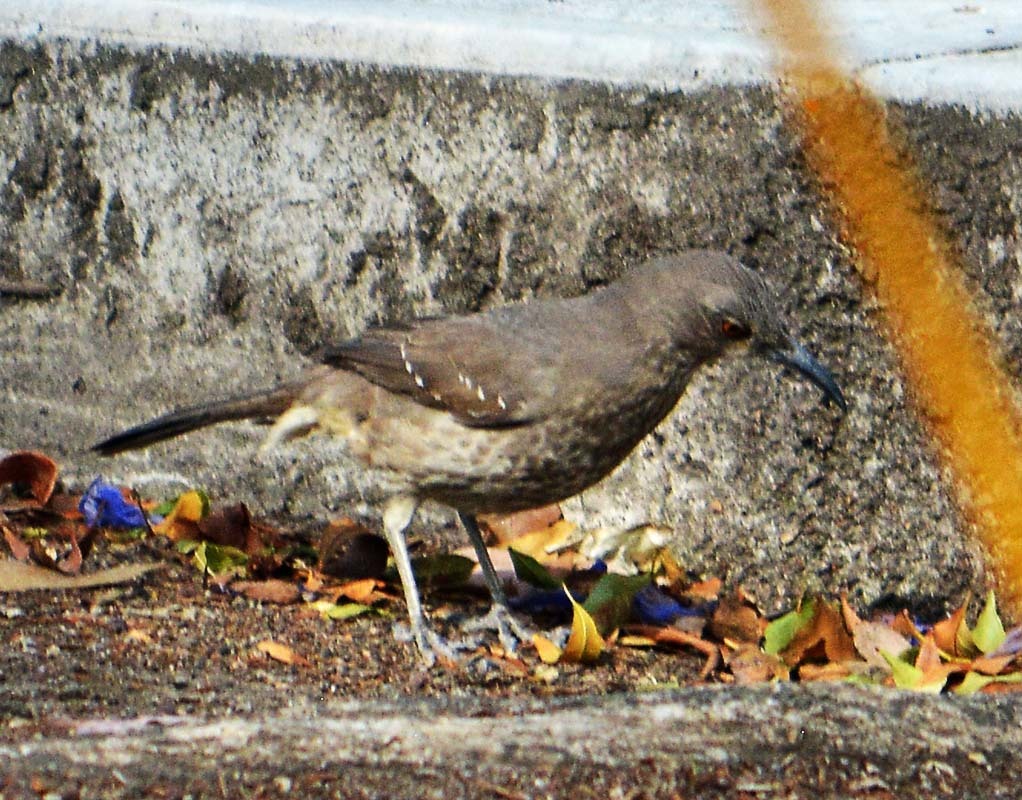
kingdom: Animalia
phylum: Chordata
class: Aves
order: Passeriformes
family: Mimidae
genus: Toxostoma
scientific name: Toxostoma curvirostre
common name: Curve-billed thrasher
